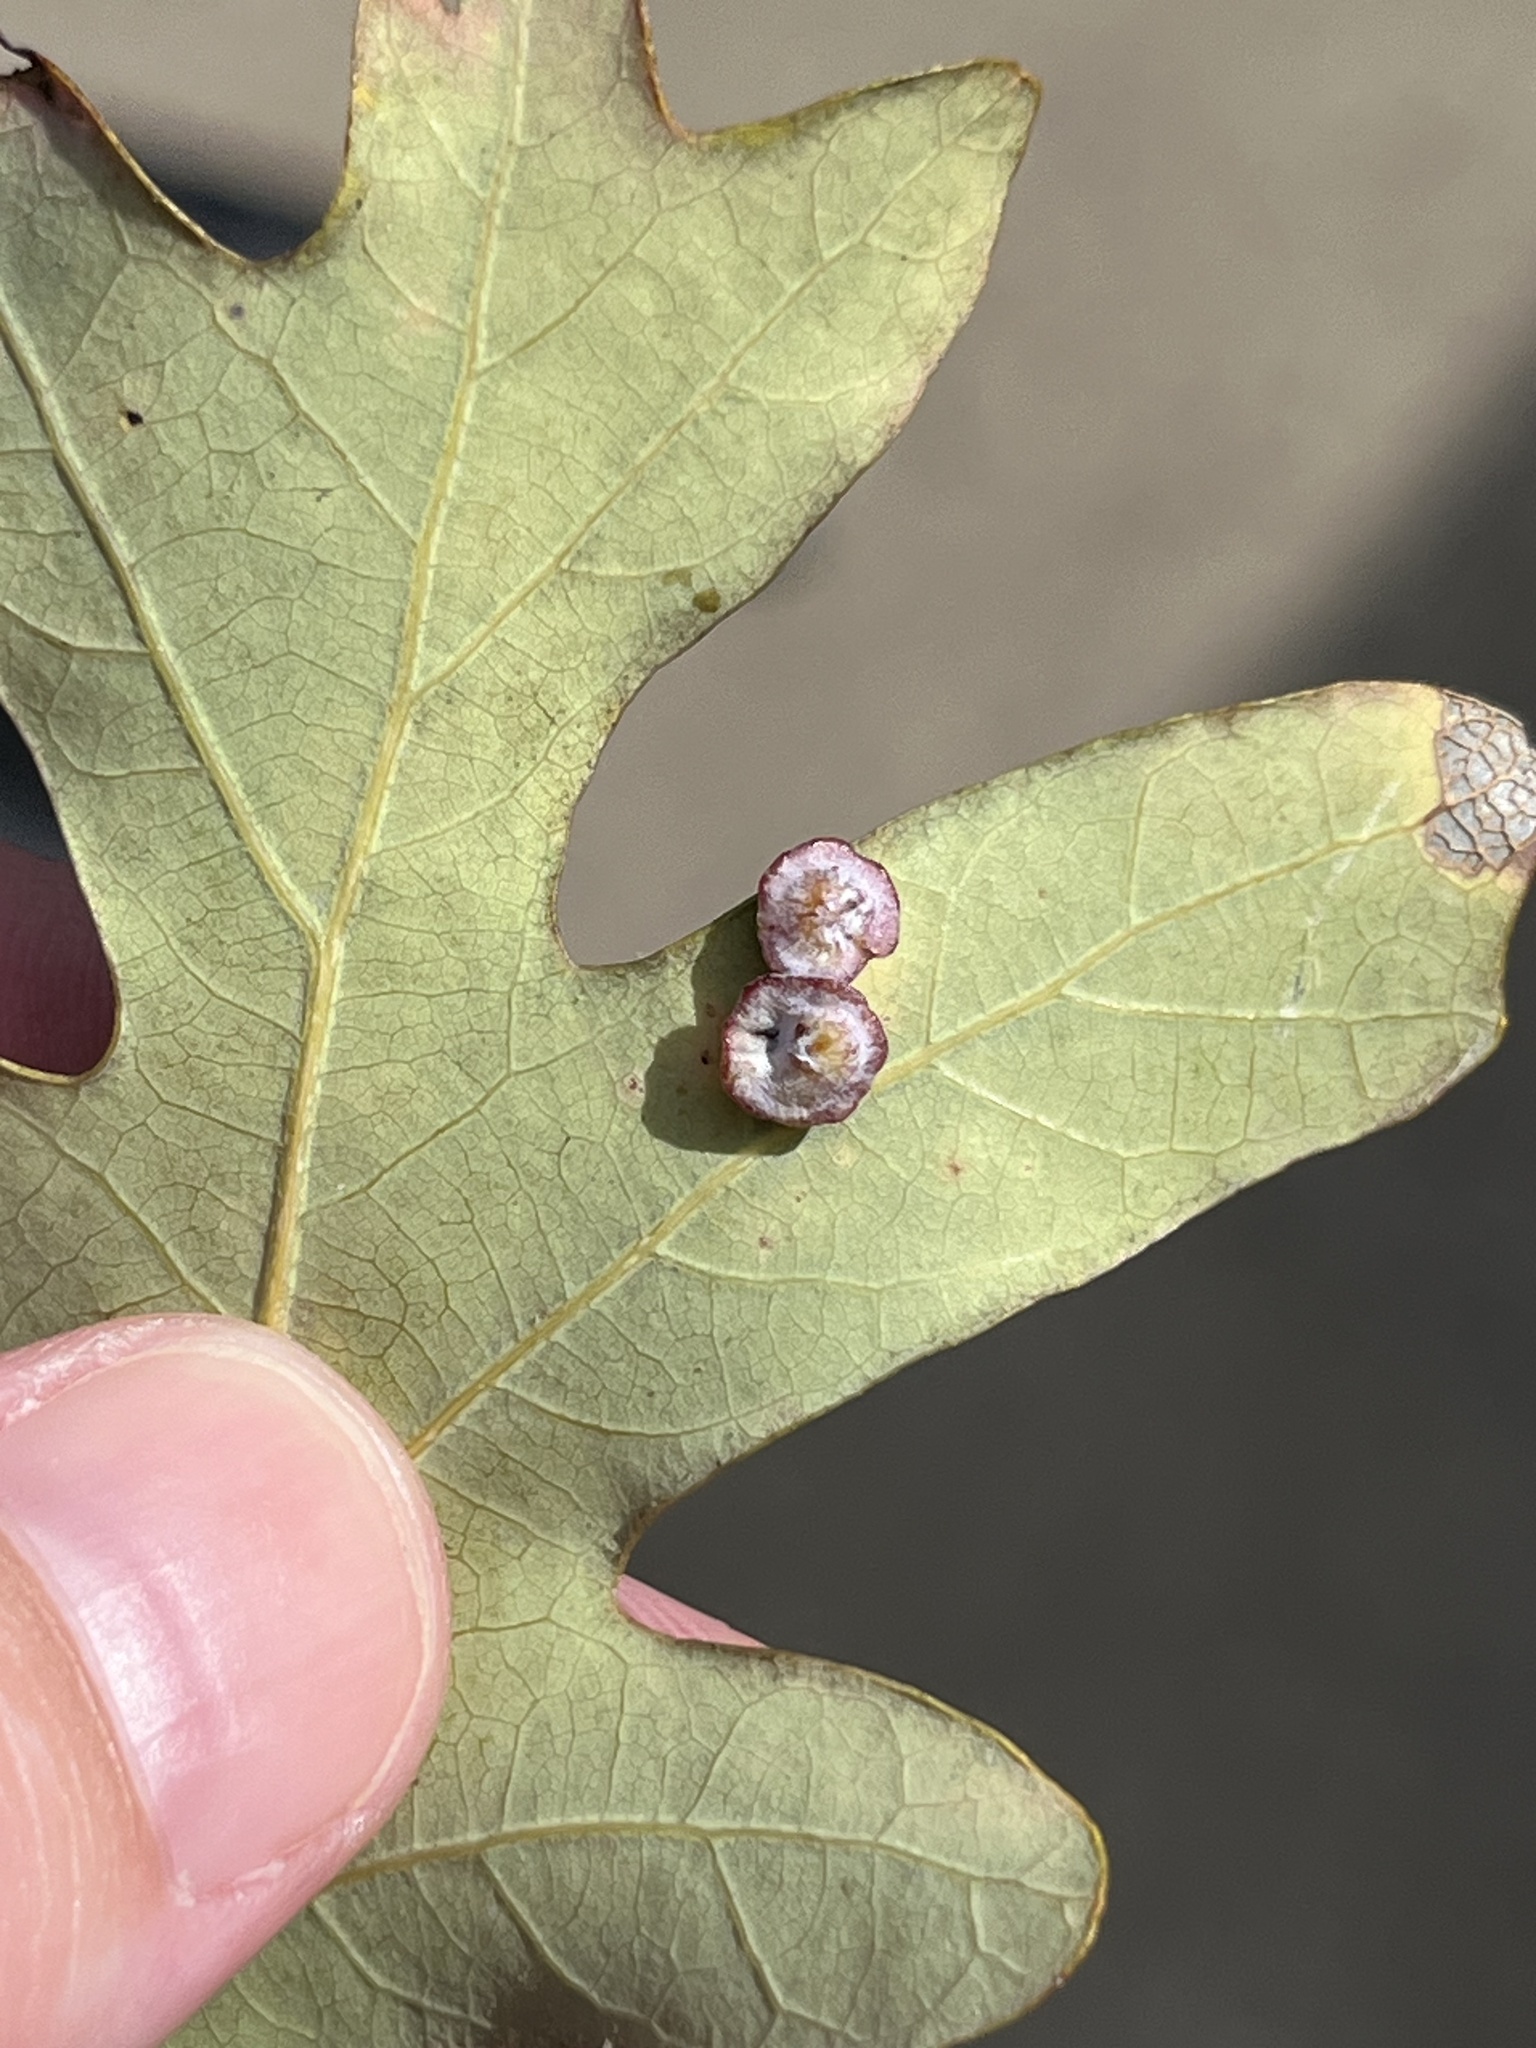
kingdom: Animalia
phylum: Arthropoda
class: Insecta
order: Hymenoptera
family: Cynipidae
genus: Phylloteras
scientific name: Phylloteras poculum
